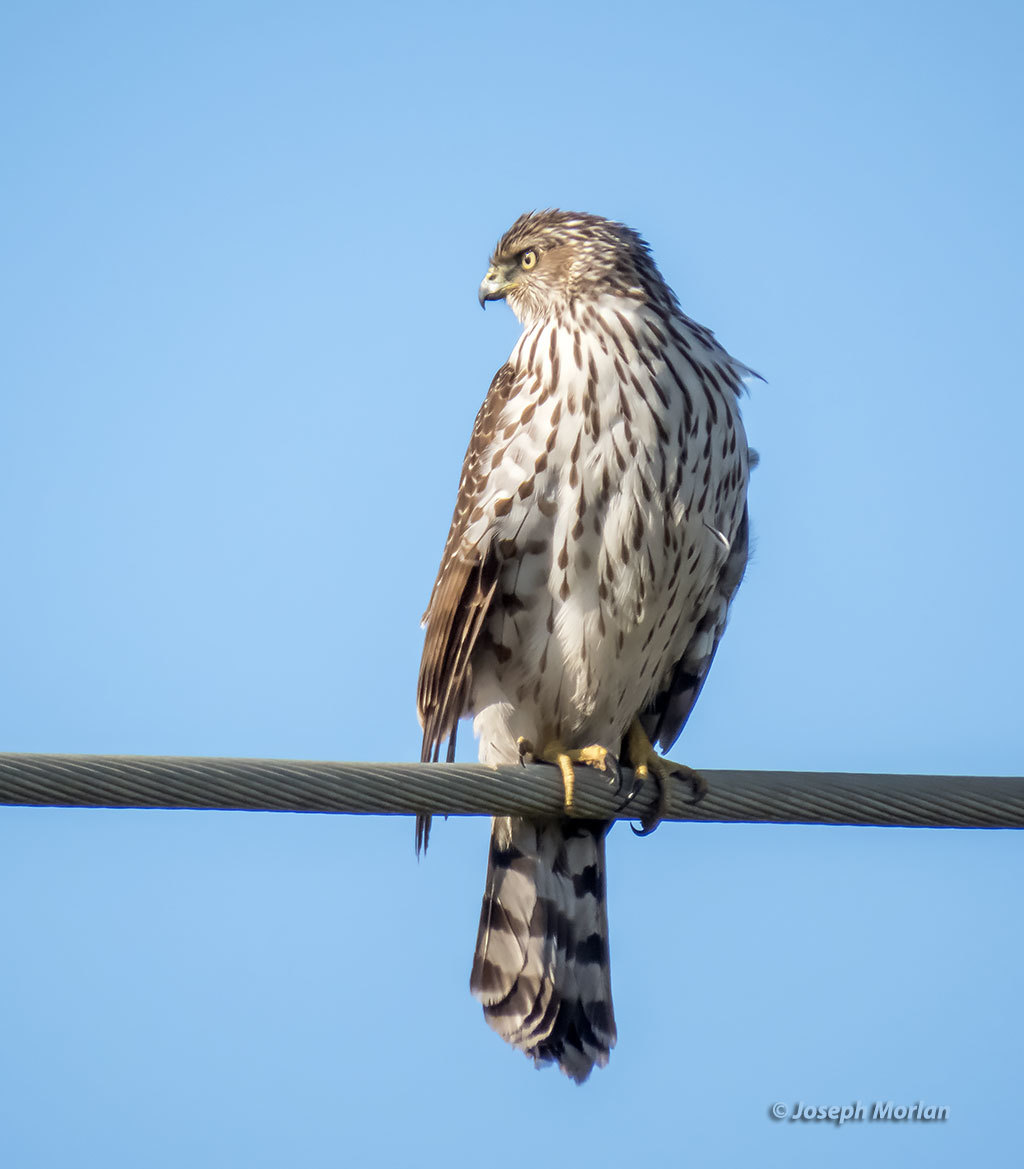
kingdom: Animalia
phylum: Chordata
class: Aves
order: Accipitriformes
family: Accipitridae
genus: Accipiter
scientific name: Accipiter cooperii
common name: Cooper's hawk
